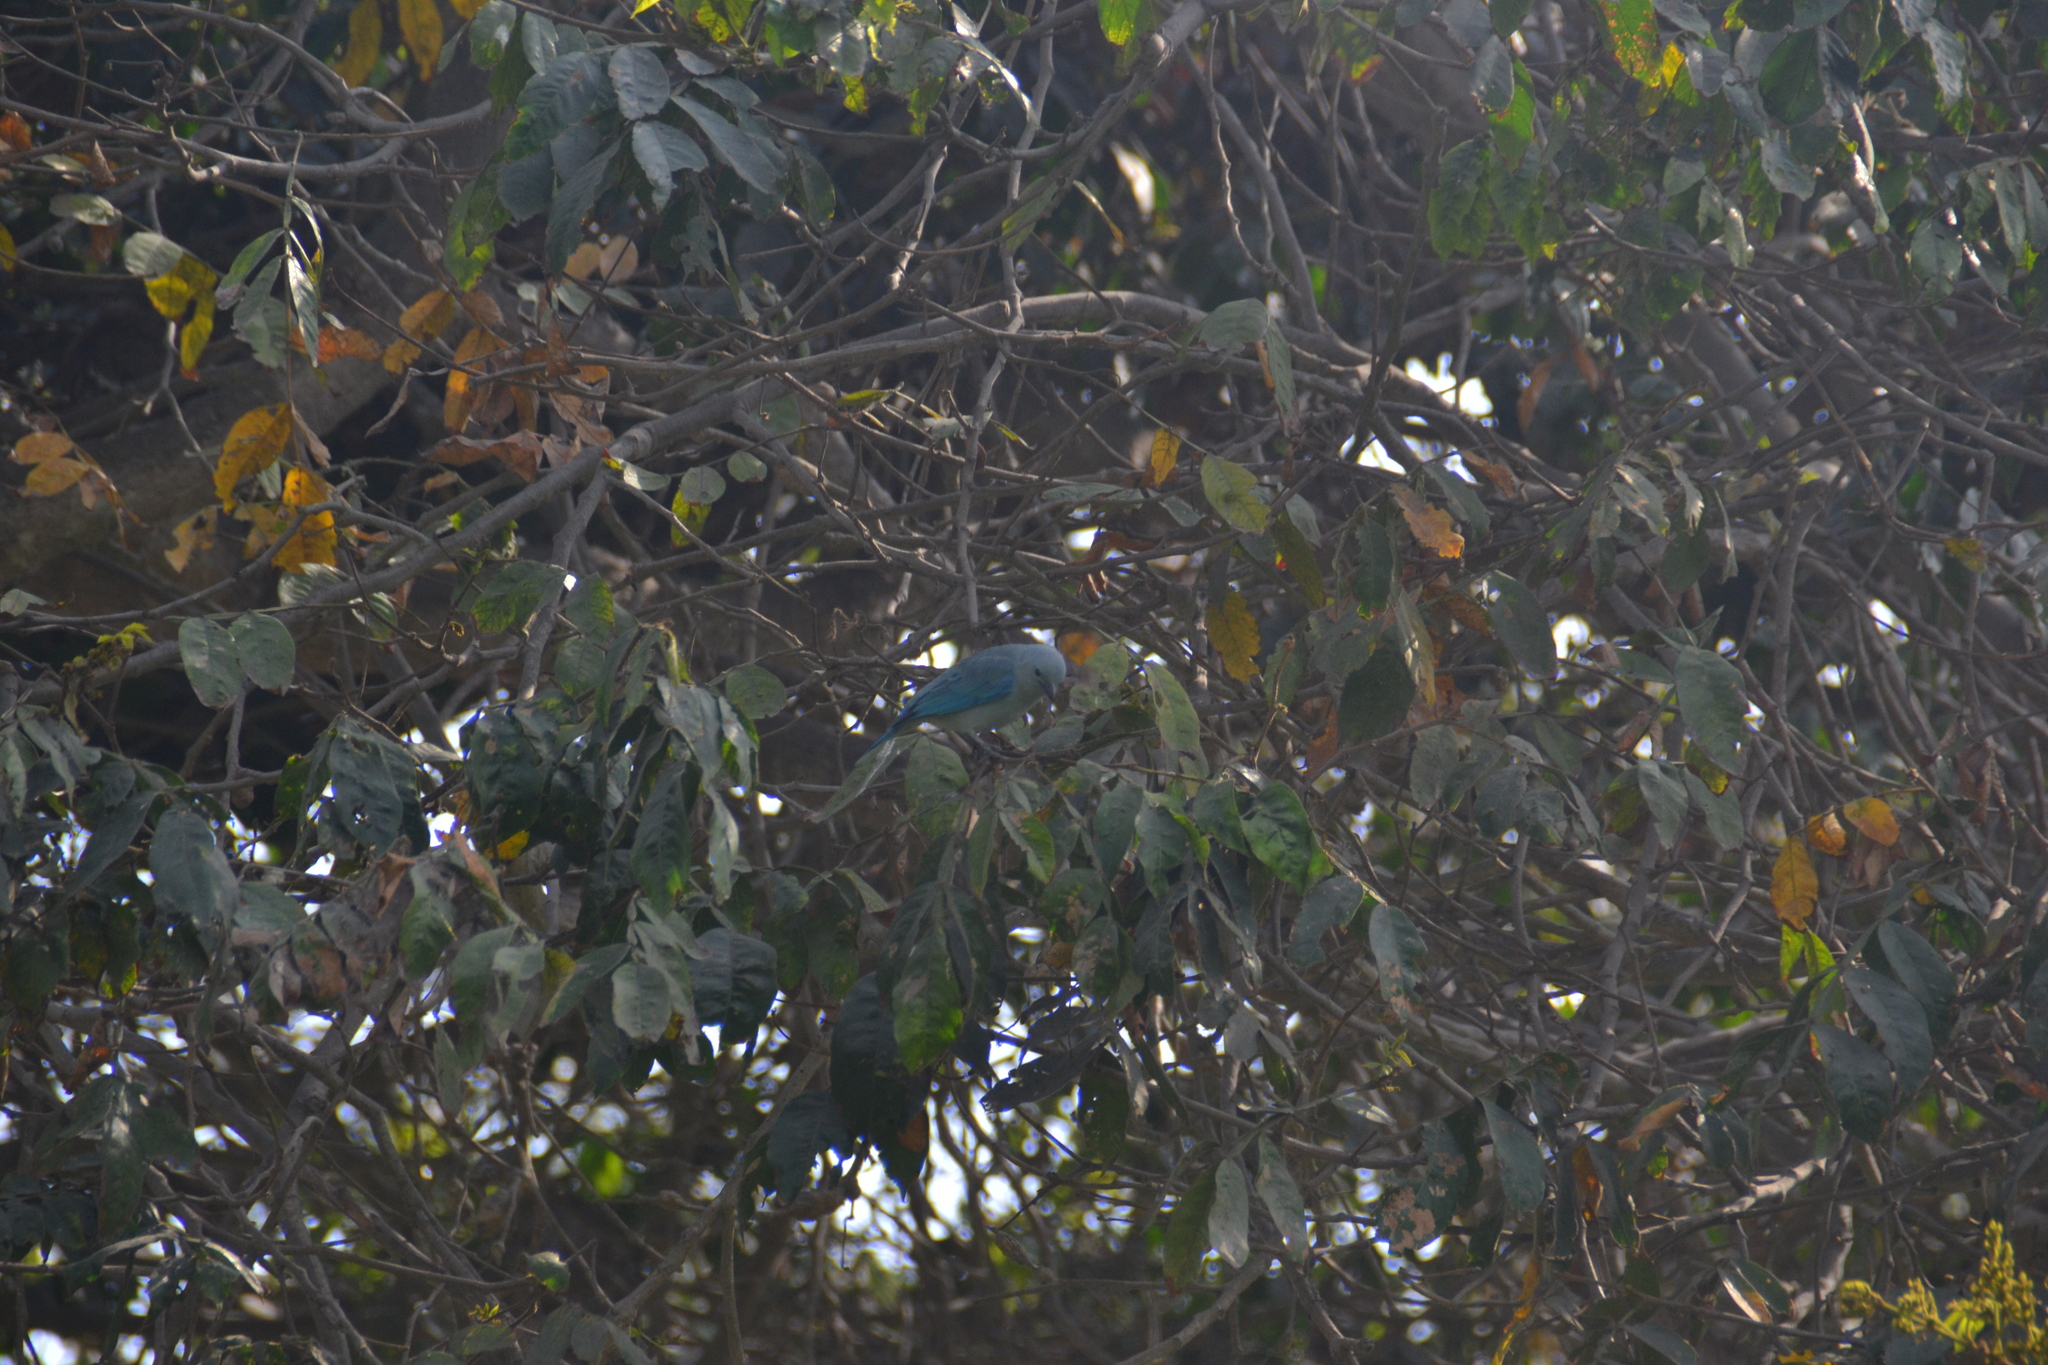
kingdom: Animalia
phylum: Chordata
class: Aves
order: Passeriformes
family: Thraupidae
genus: Thraupis
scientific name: Thraupis episcopus
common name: Blue-grey tanager
